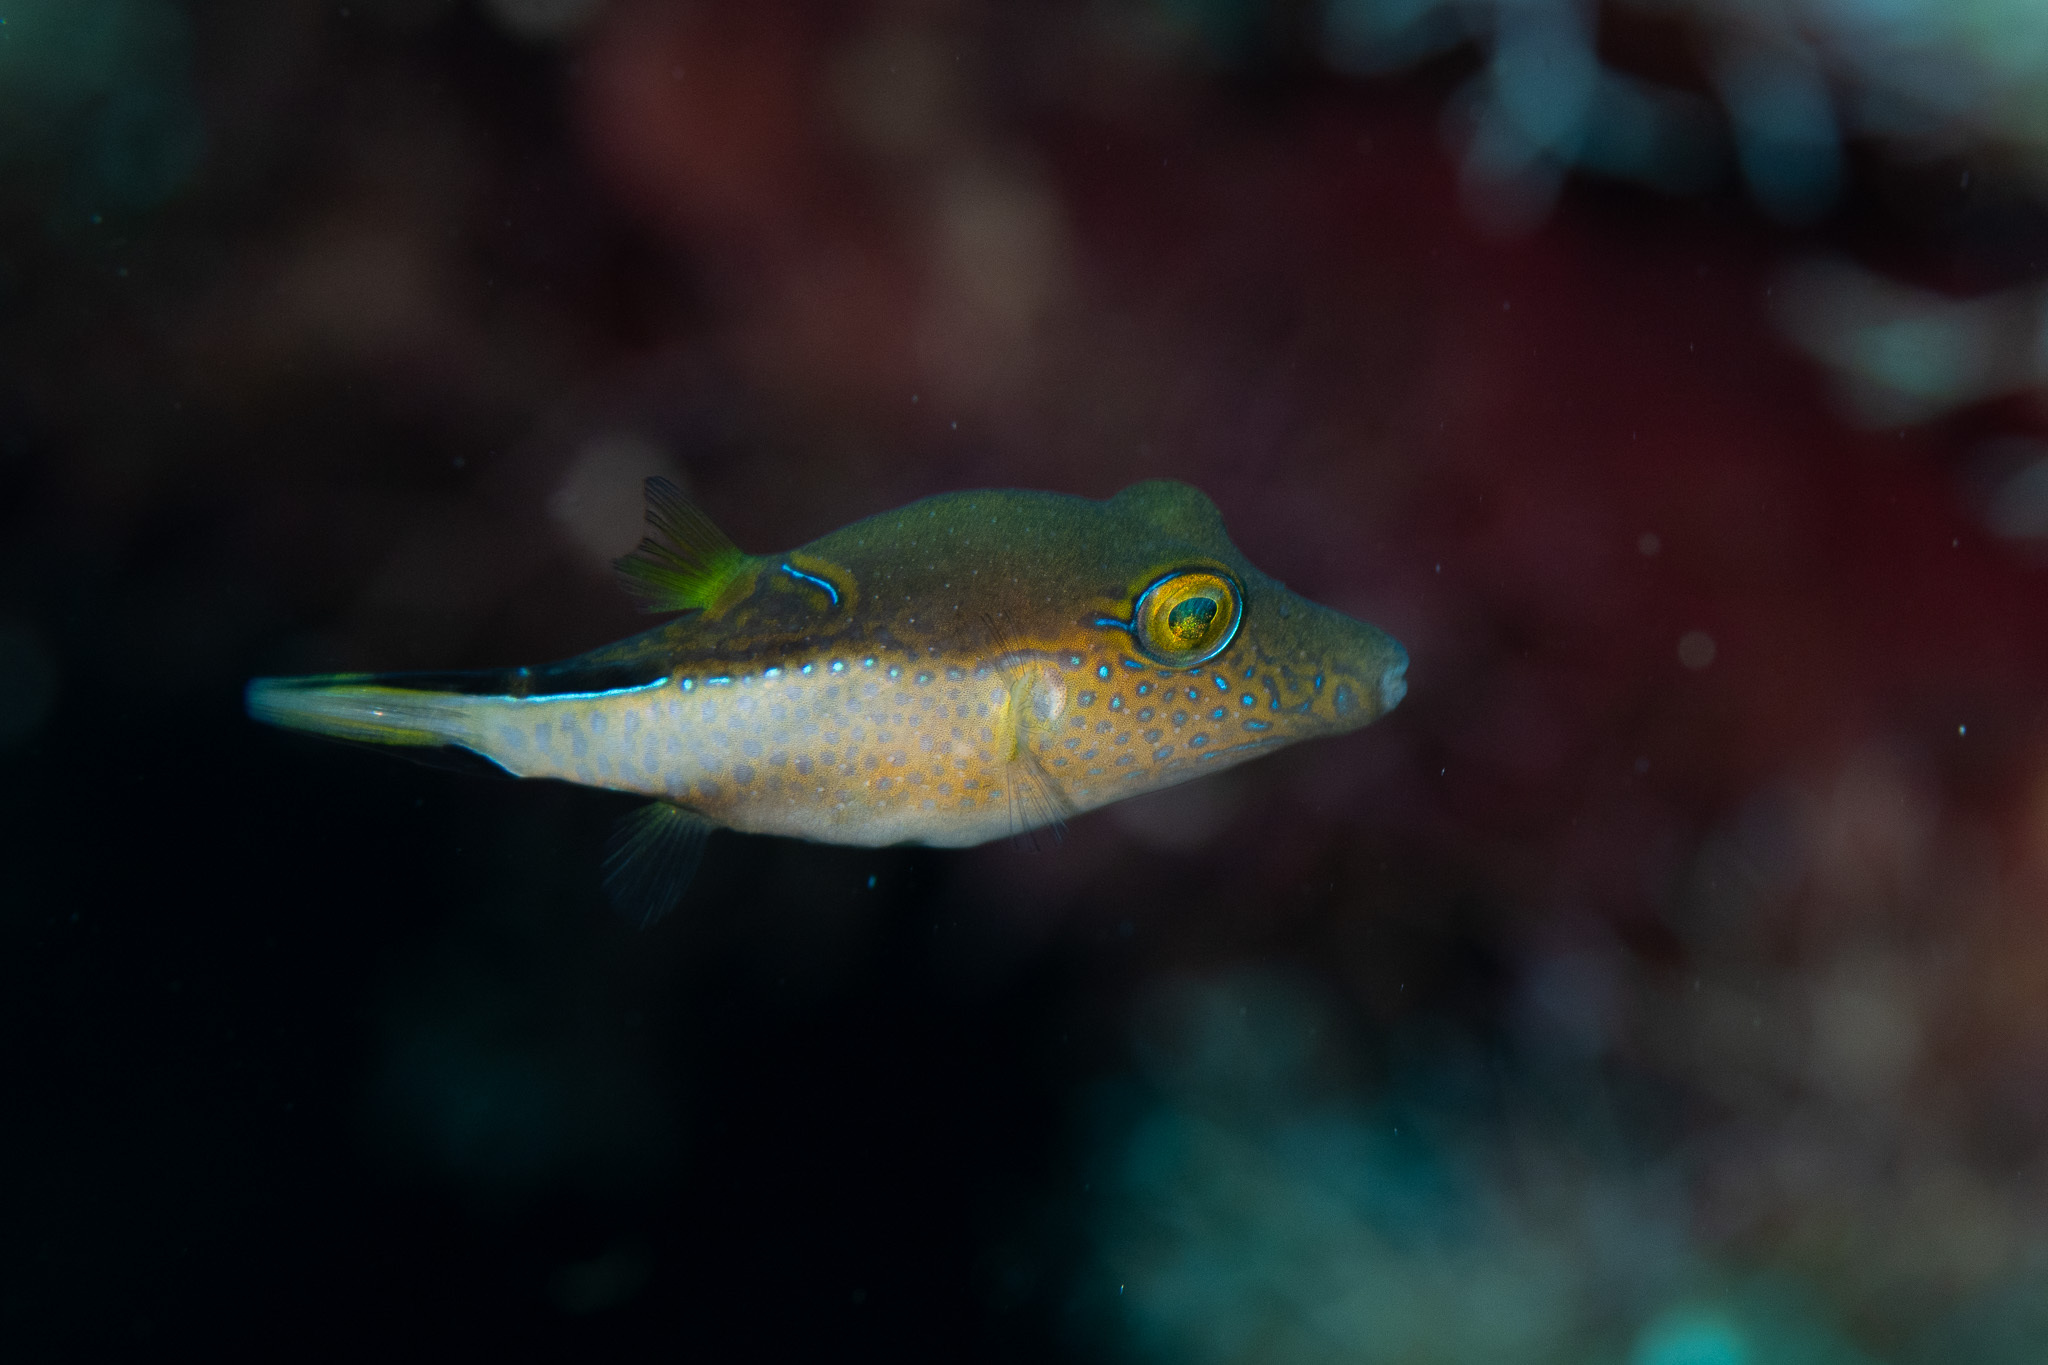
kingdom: Animalia
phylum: Chordata
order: Tetraodontiformes
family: Tetraodontidae
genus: Canthigaster
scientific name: Canthigaster rostrata
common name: Caribbean sharpnose-puffer
